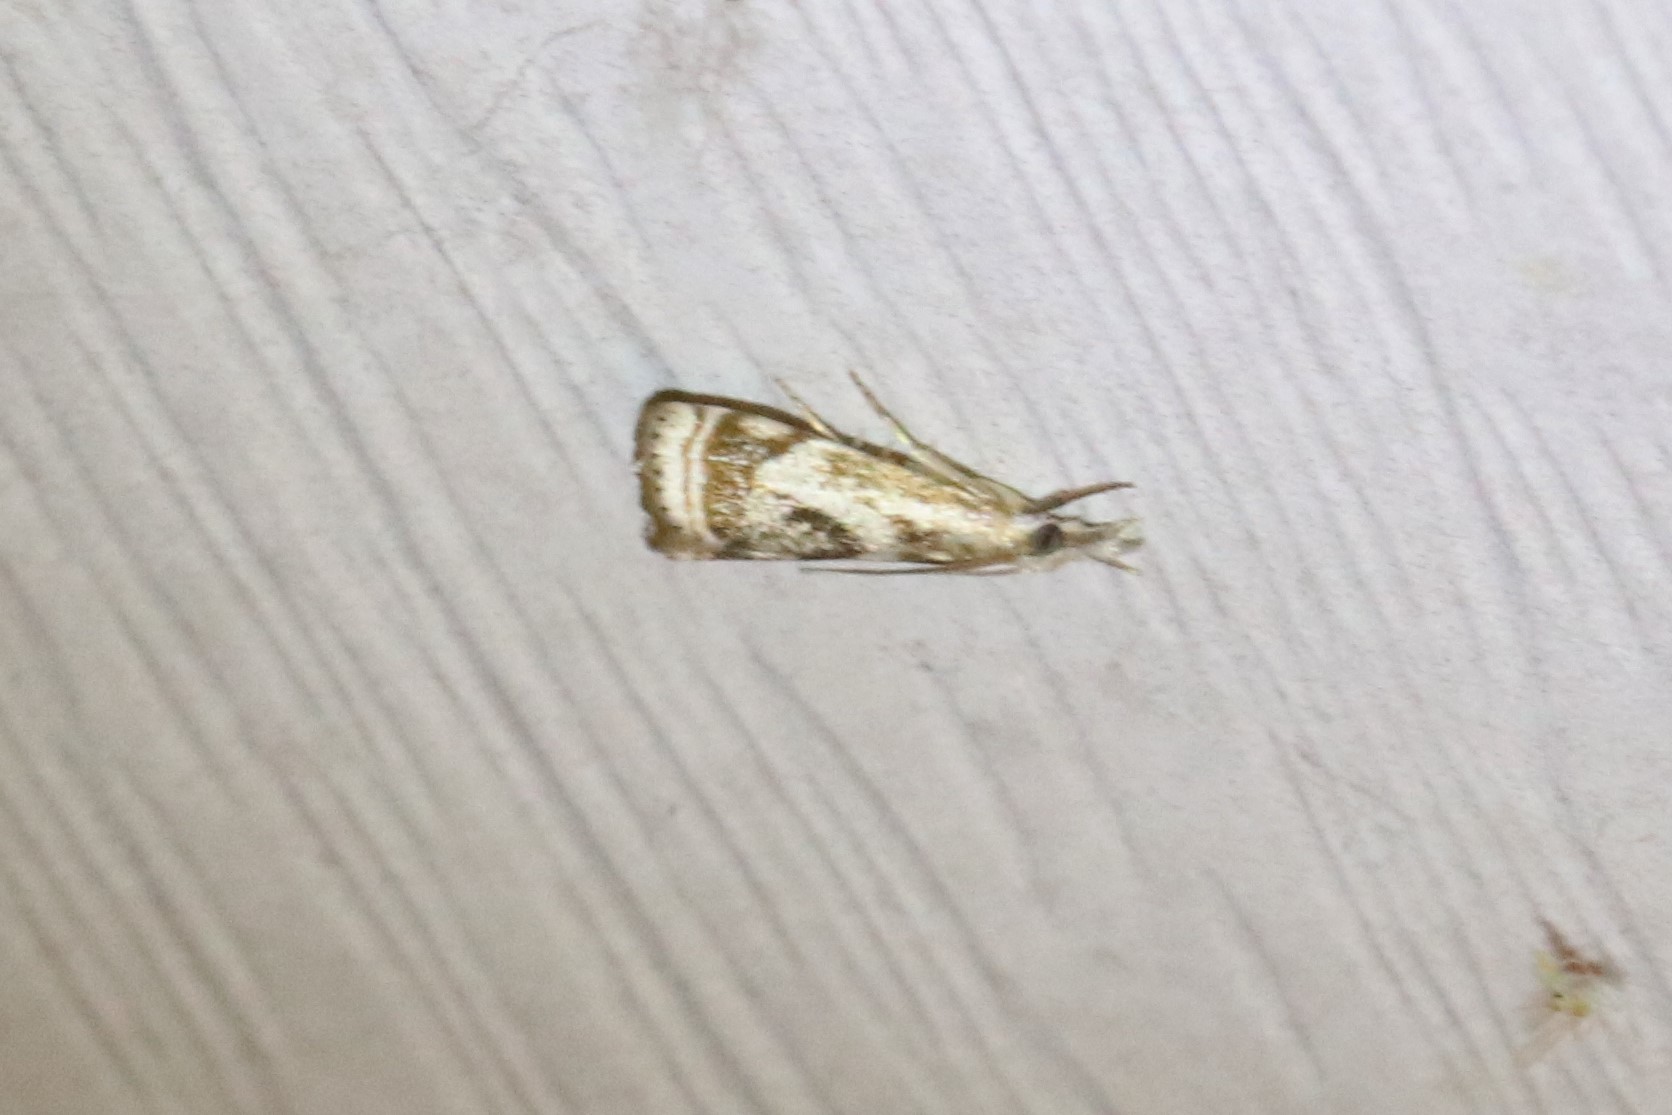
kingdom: Animalia
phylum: Arthropoda
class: Insecta
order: Lepidoptera
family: Crambidae
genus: Microcrambus
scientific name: Microcrambus elegans
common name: Elegant grass-veneer
